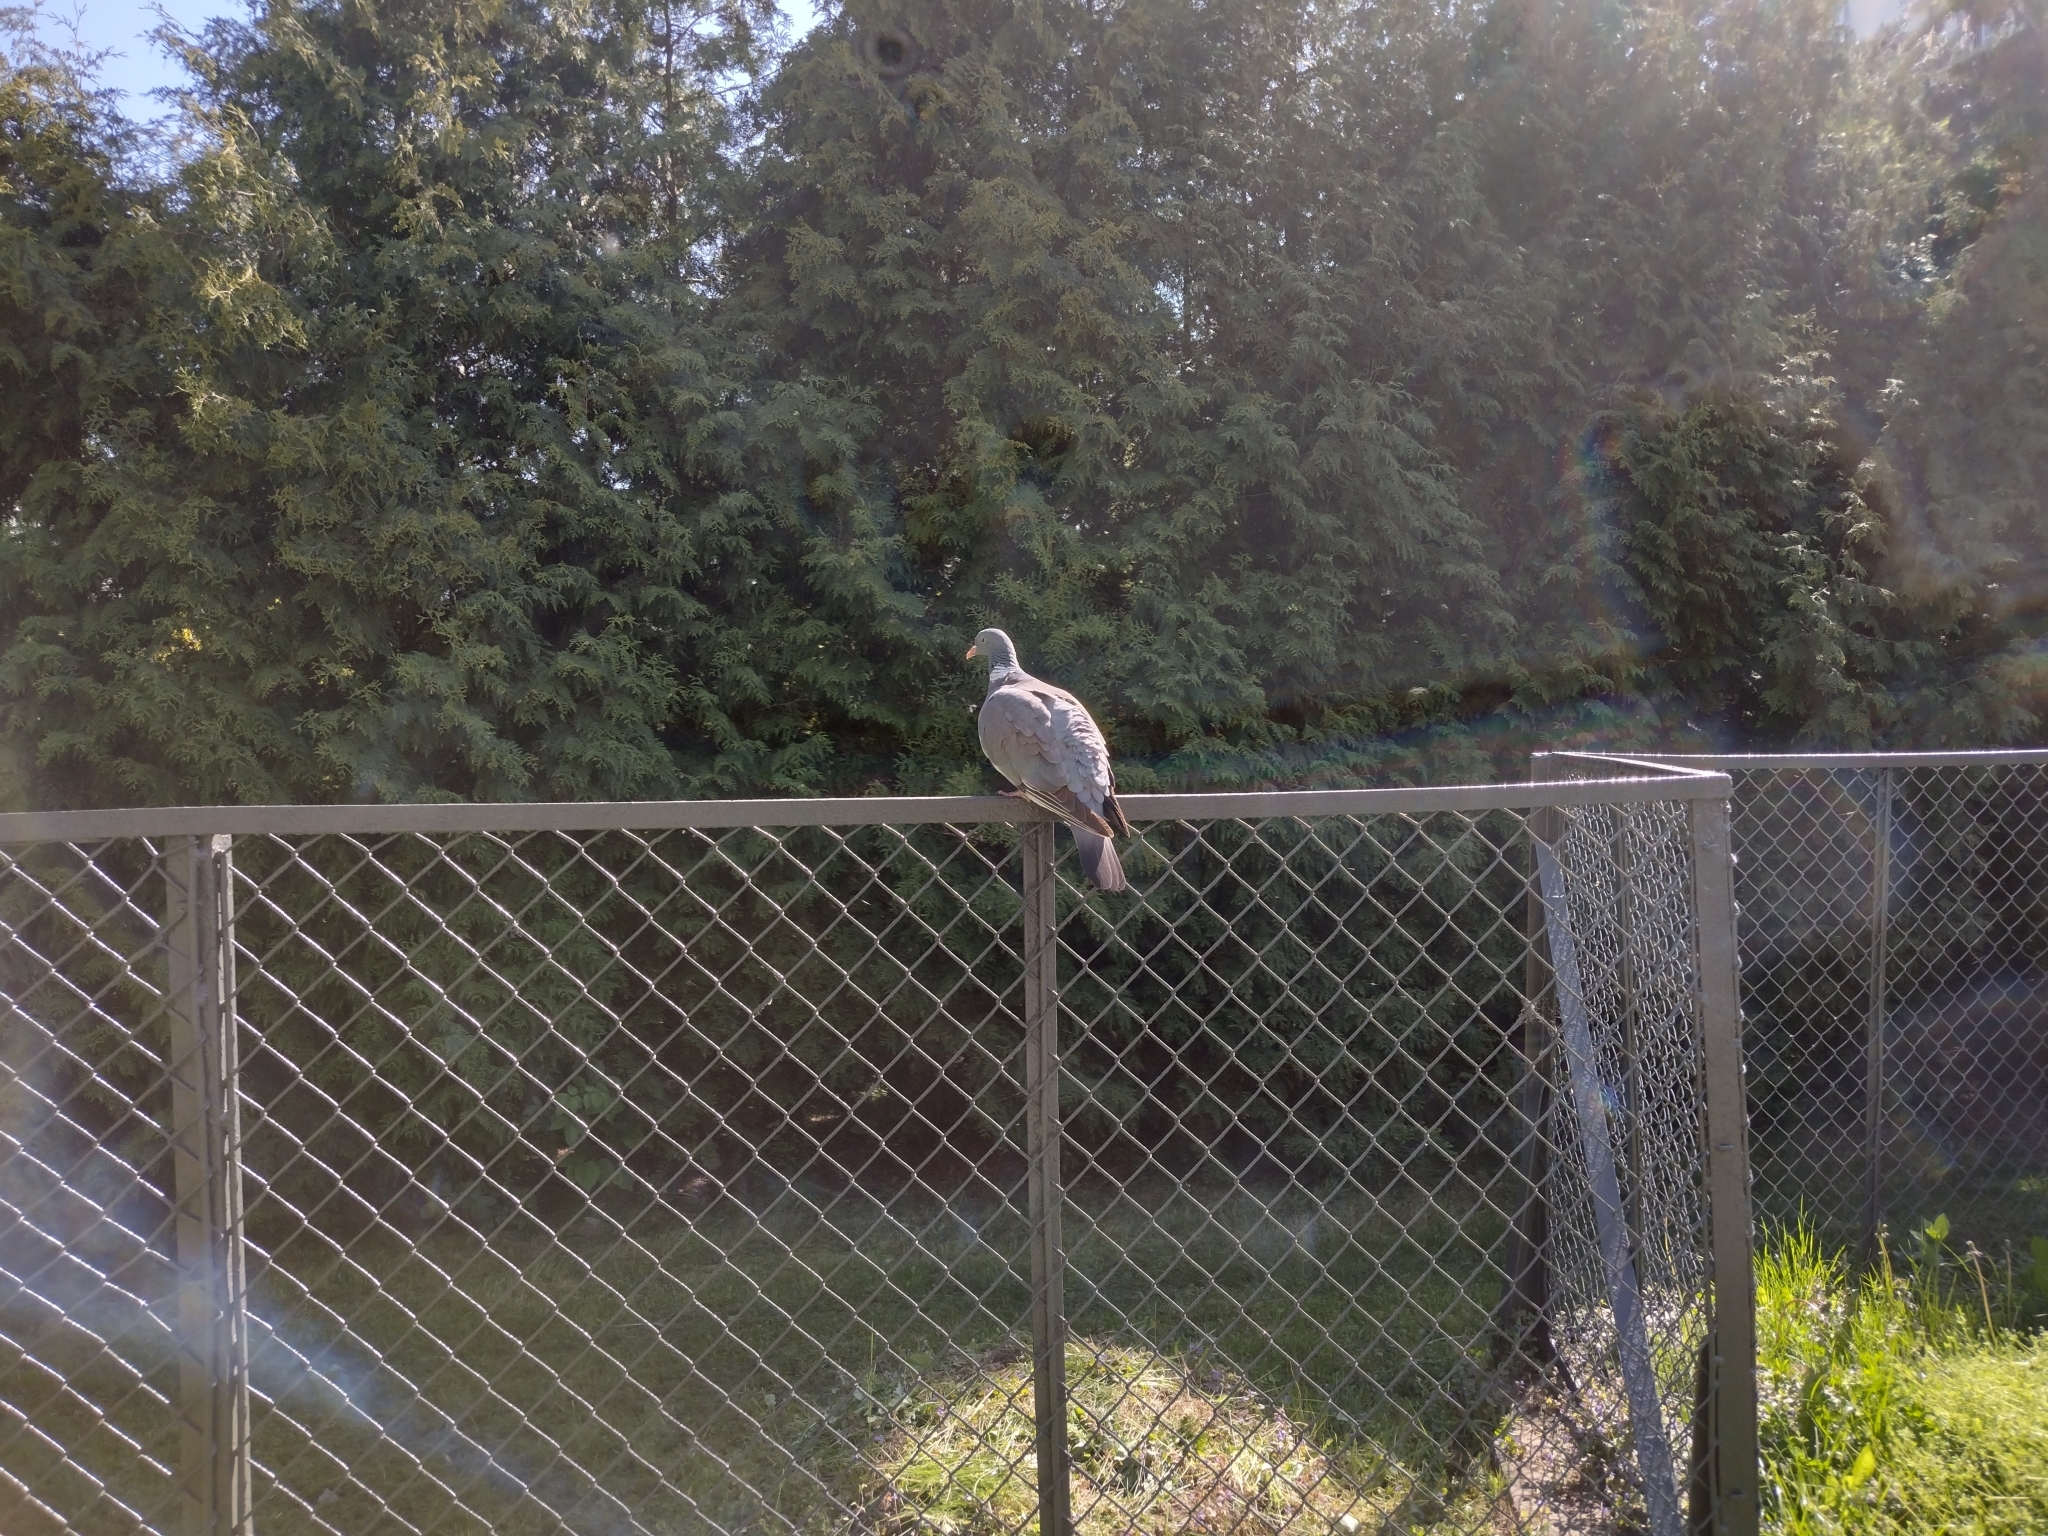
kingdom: Animalia
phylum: Chordata
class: Aves
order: Columbiformes
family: Columbidae
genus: Columba
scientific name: Columba palumbus
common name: Common wood pigeon
